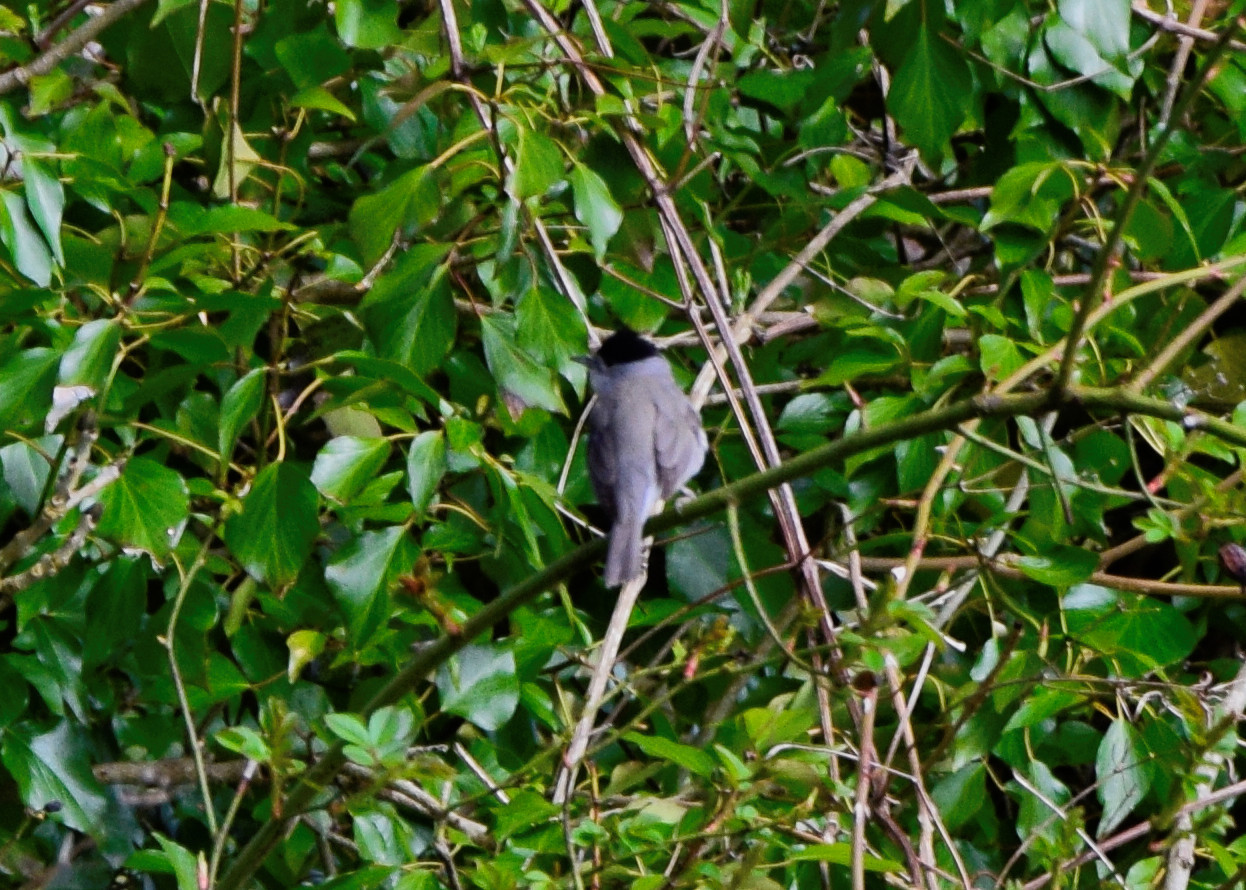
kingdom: Animalia
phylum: Chordata
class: Aves
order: Passeriformes
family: Sylviidae
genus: Sylvia
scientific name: Sylvia atricapilla
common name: Eurasian blackcap
